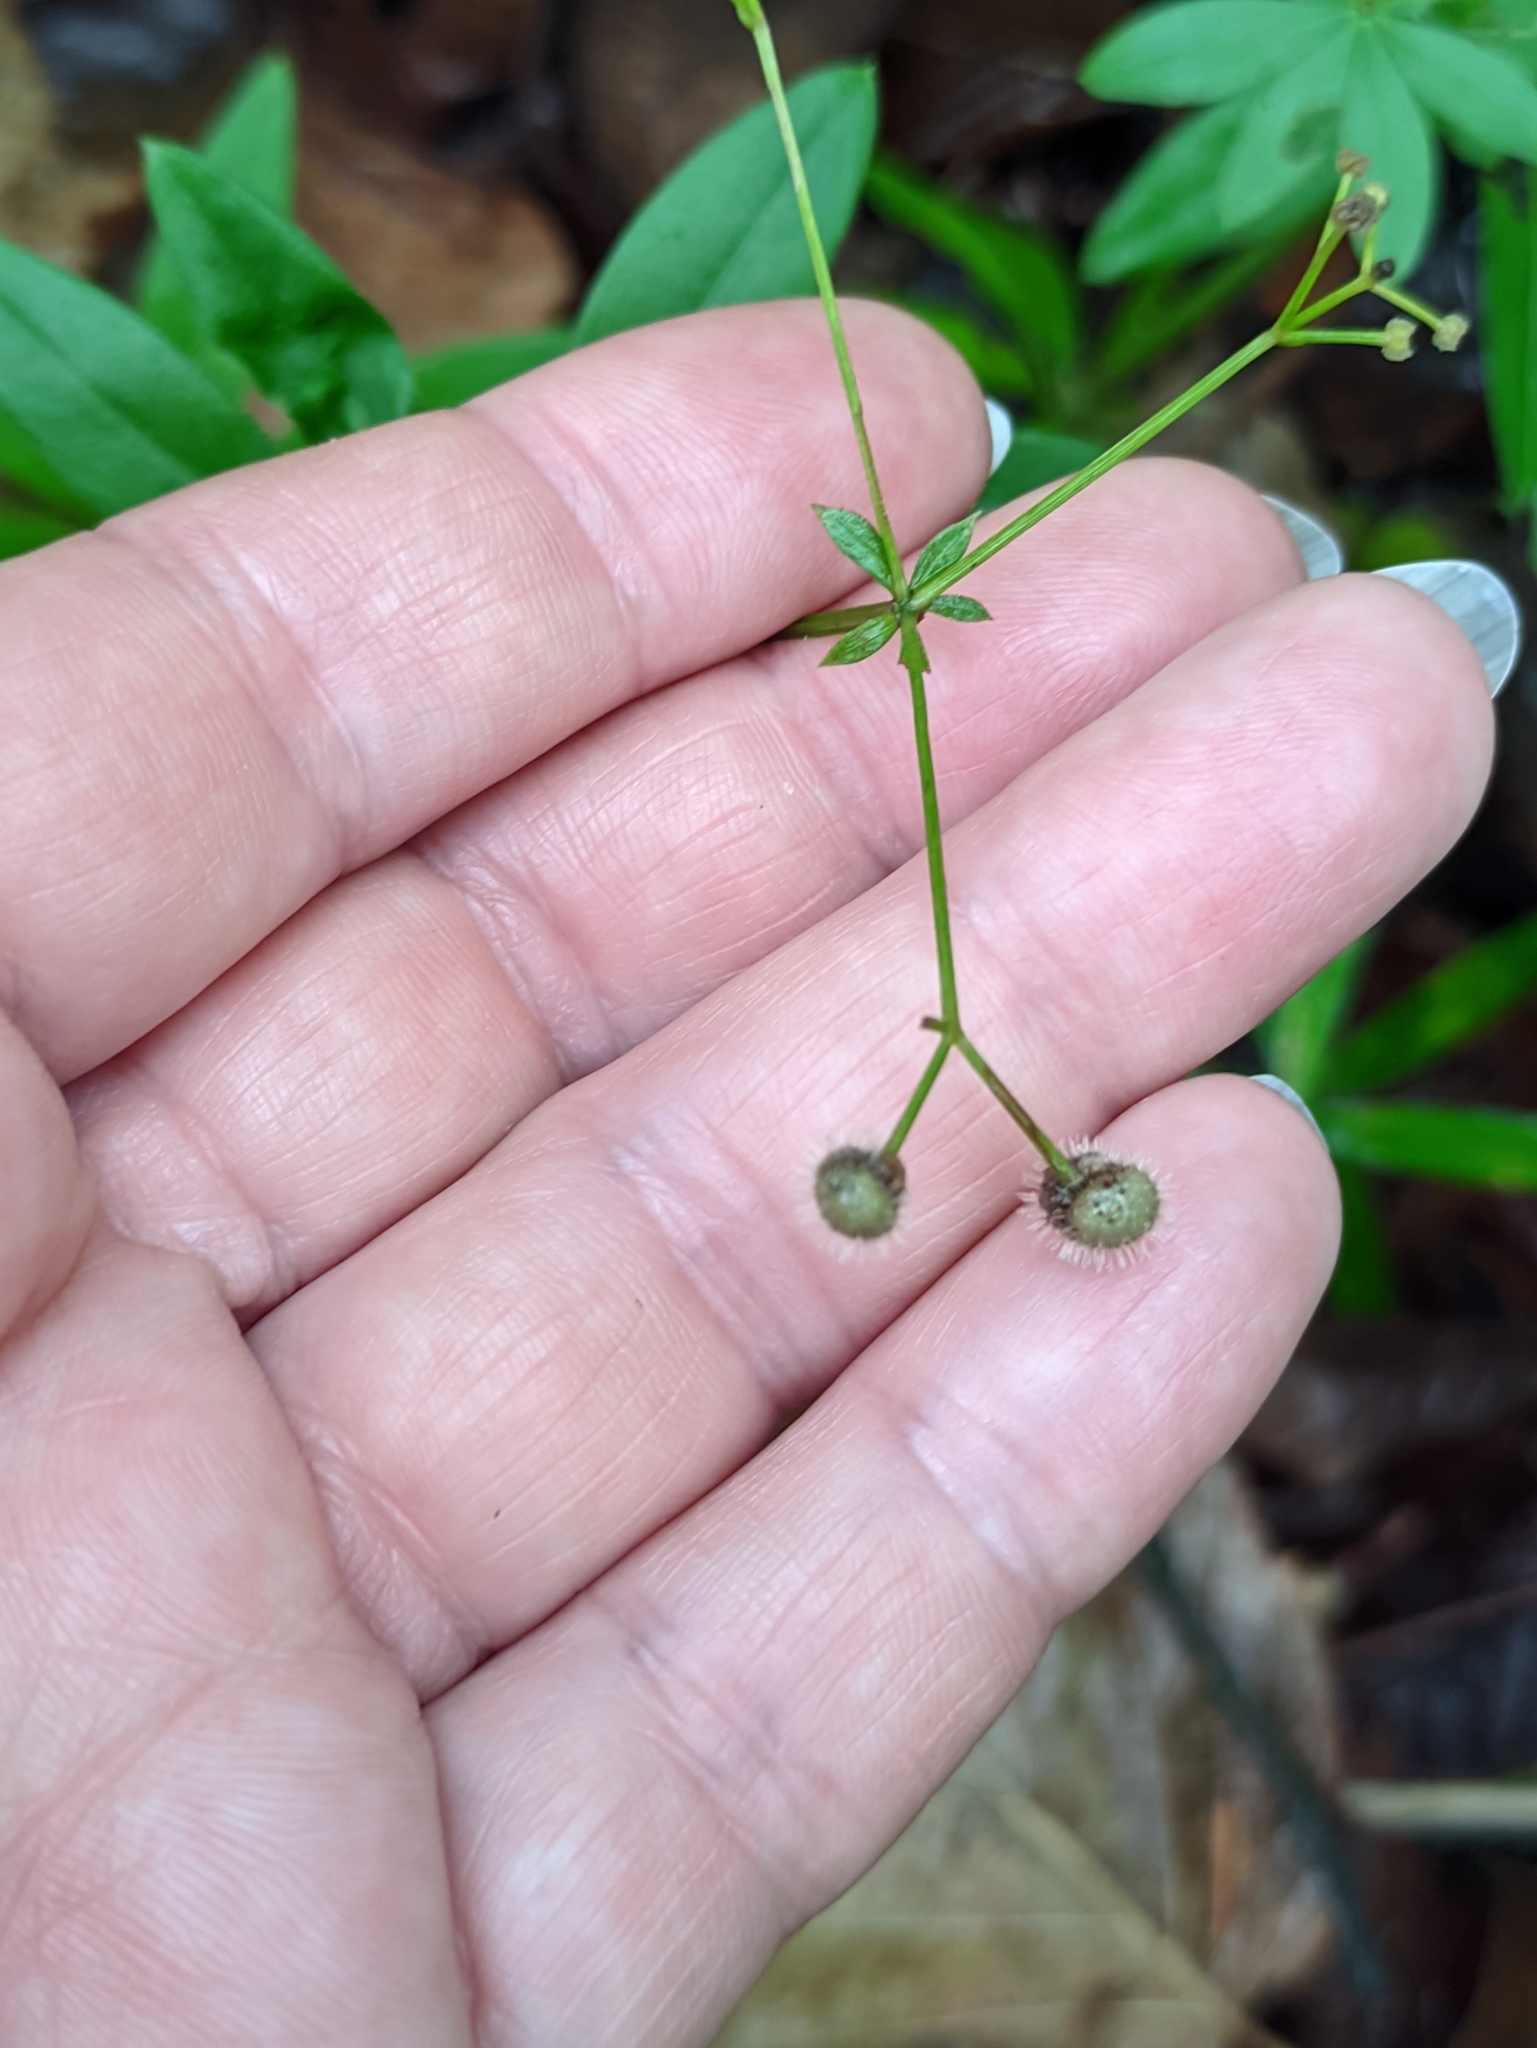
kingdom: Plantae
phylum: Tracheophyta
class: Magnoliopsida
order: Gentianales
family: Rubiaceae
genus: Galium
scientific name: Galium odoratum
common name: Sweet woodruff
